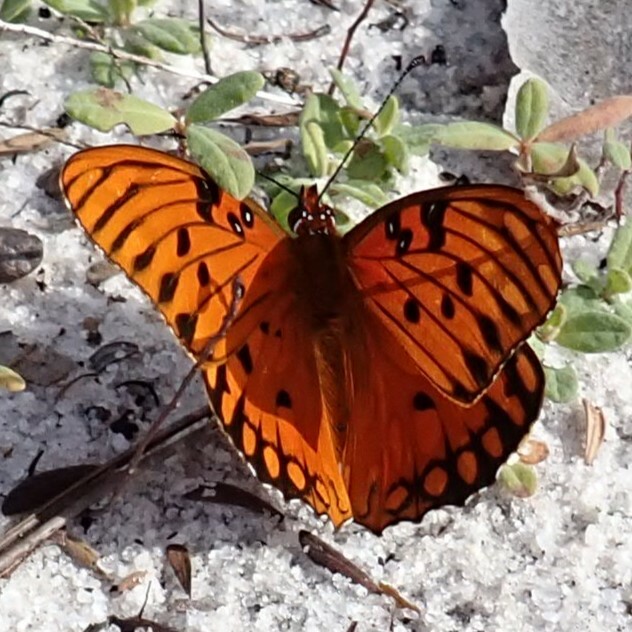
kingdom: Animalia
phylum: Arthropoda
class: Insecta
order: Lepidoptera
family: Nymphalidae
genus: Dione
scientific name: Dione vanillae
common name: Gulf fritillary
